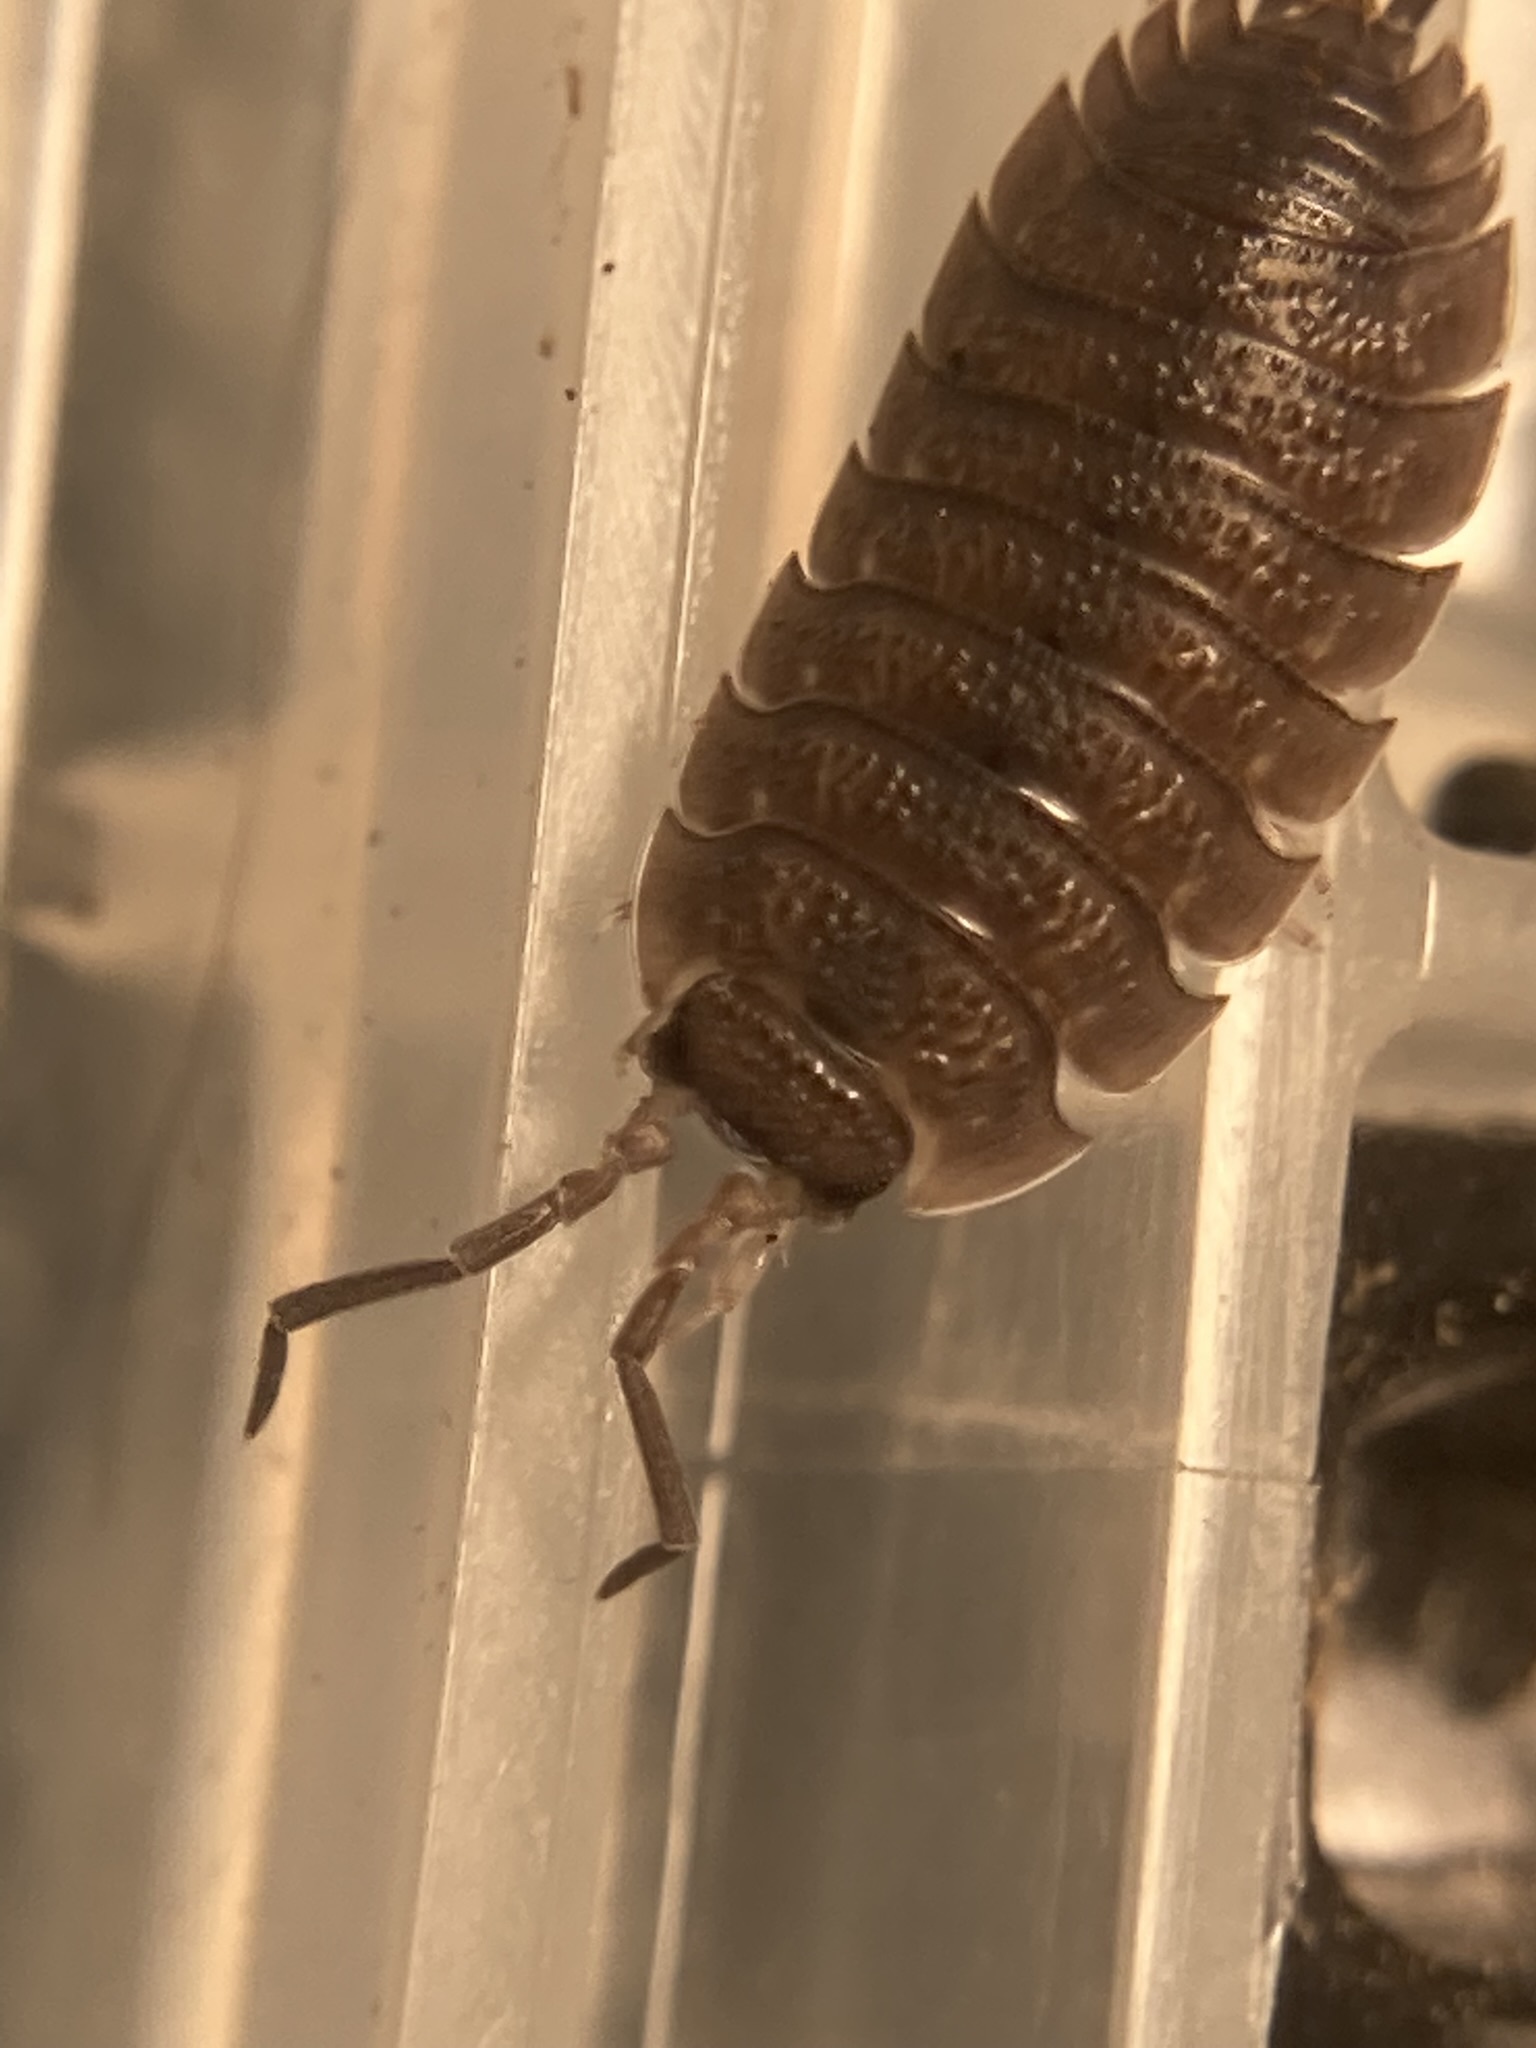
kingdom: Animalia
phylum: Arthropoda
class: Malacostraca
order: Isopoda
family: Porcellionidae
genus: Porcellio
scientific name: Porcellio scaber
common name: Common rough woodlouse
